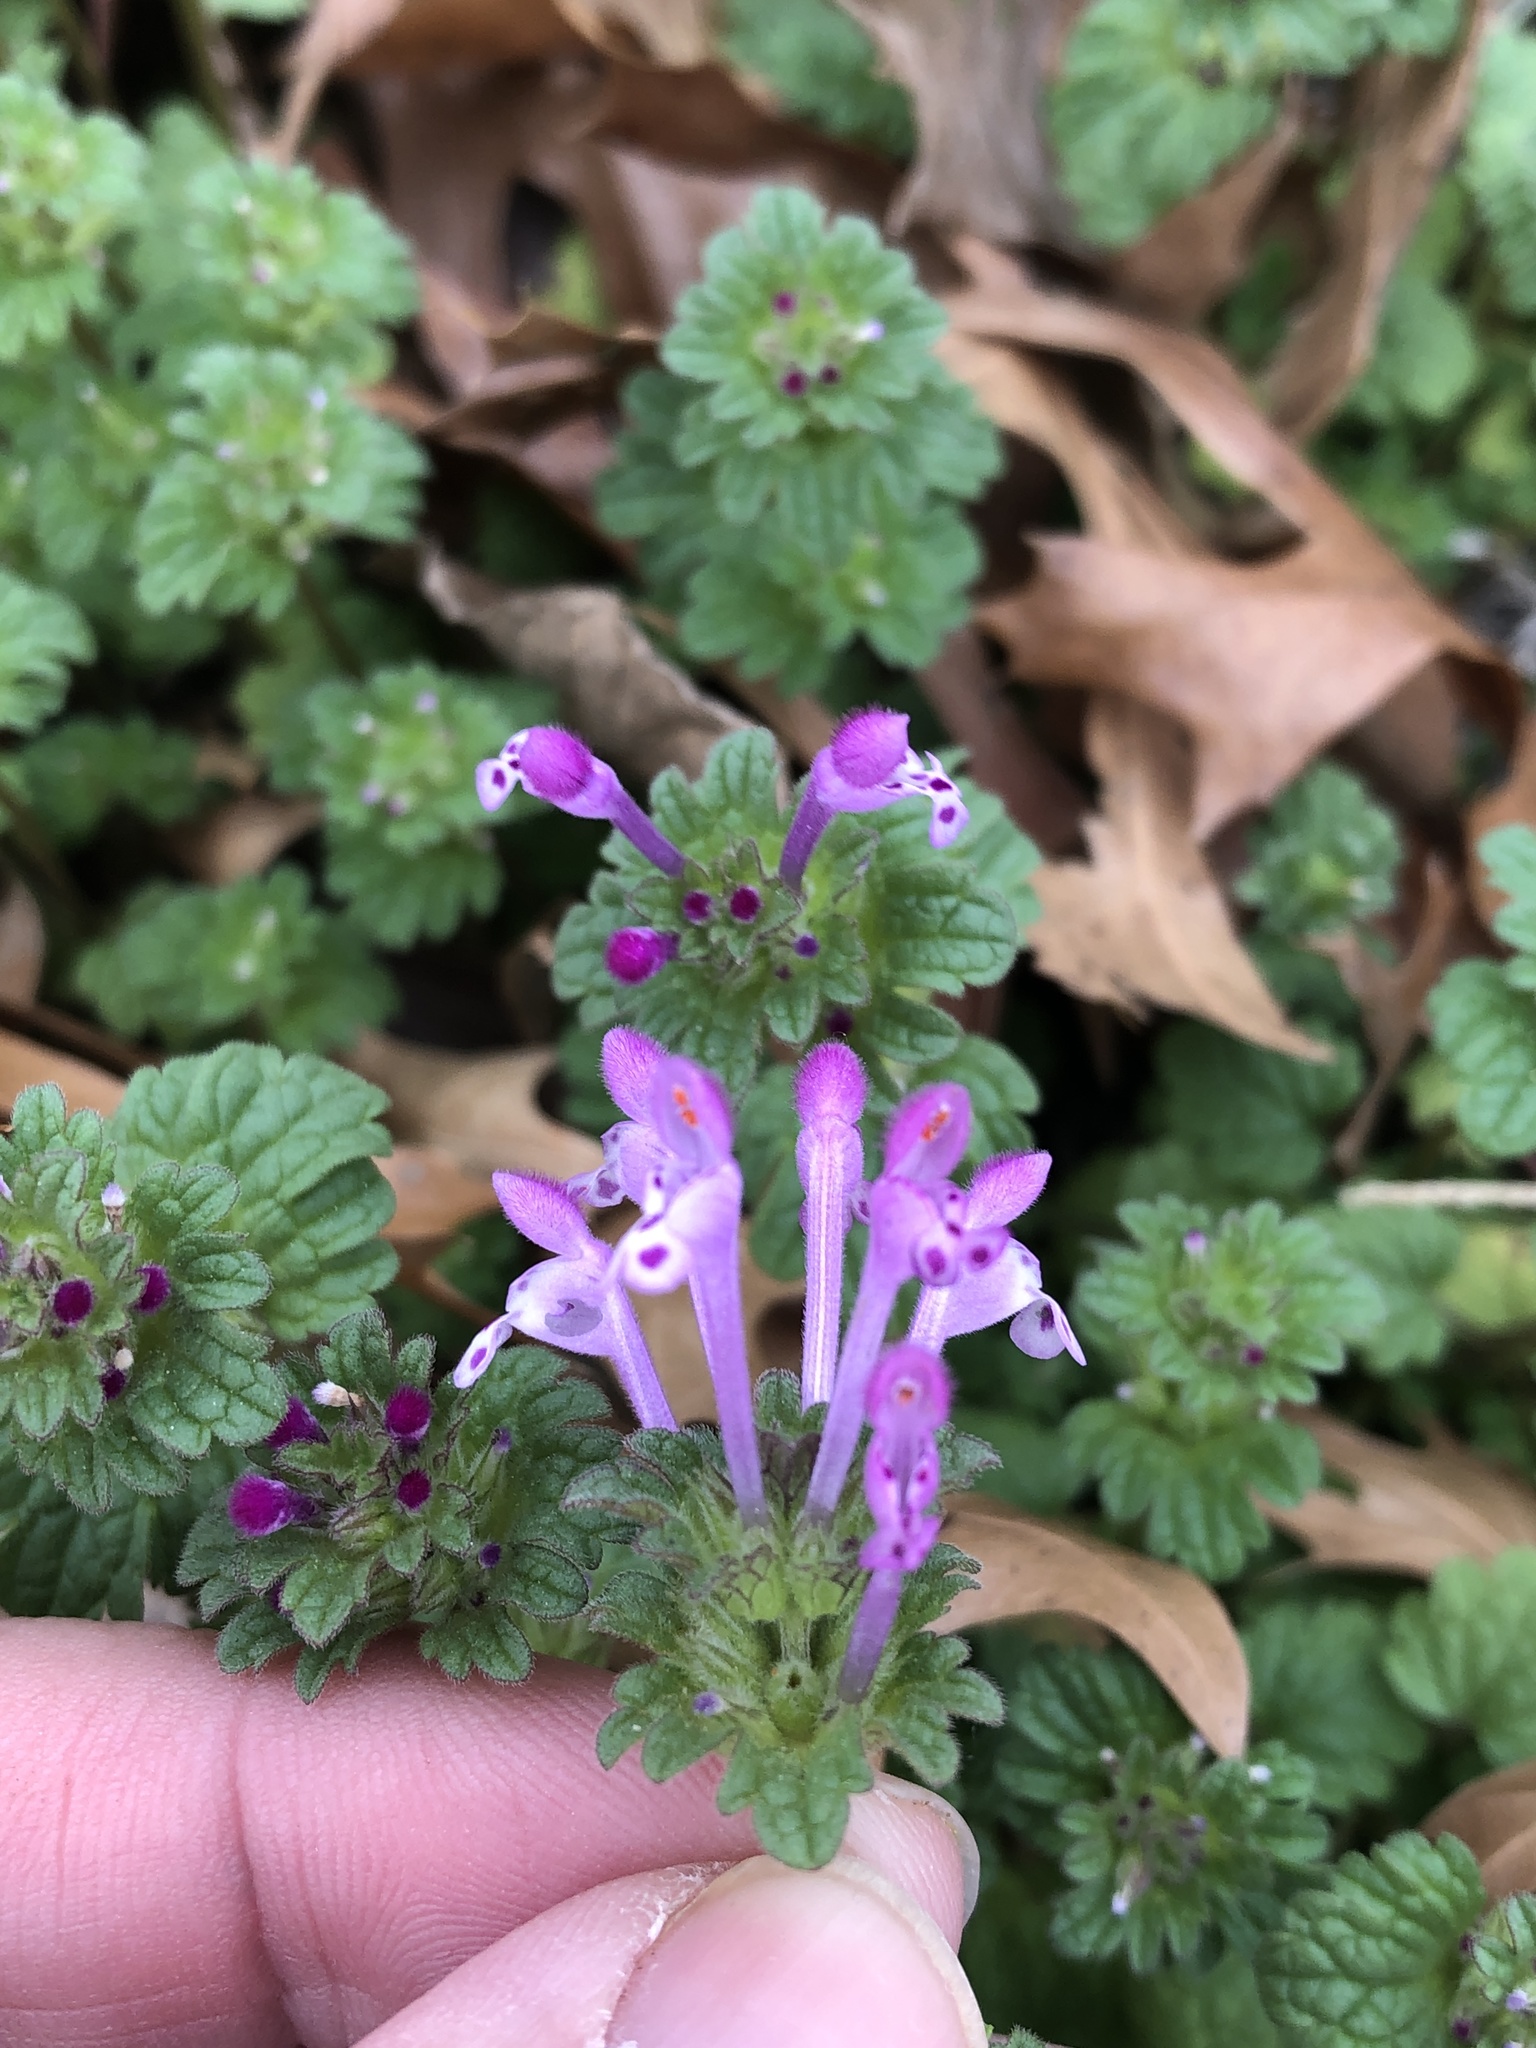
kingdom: Plantae
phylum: Tracheophyta
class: Magnoliopsida
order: Lamiales
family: Lamiaceae
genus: Lamium
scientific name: Lamium amplexicaule
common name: Henbit dead-nettle
